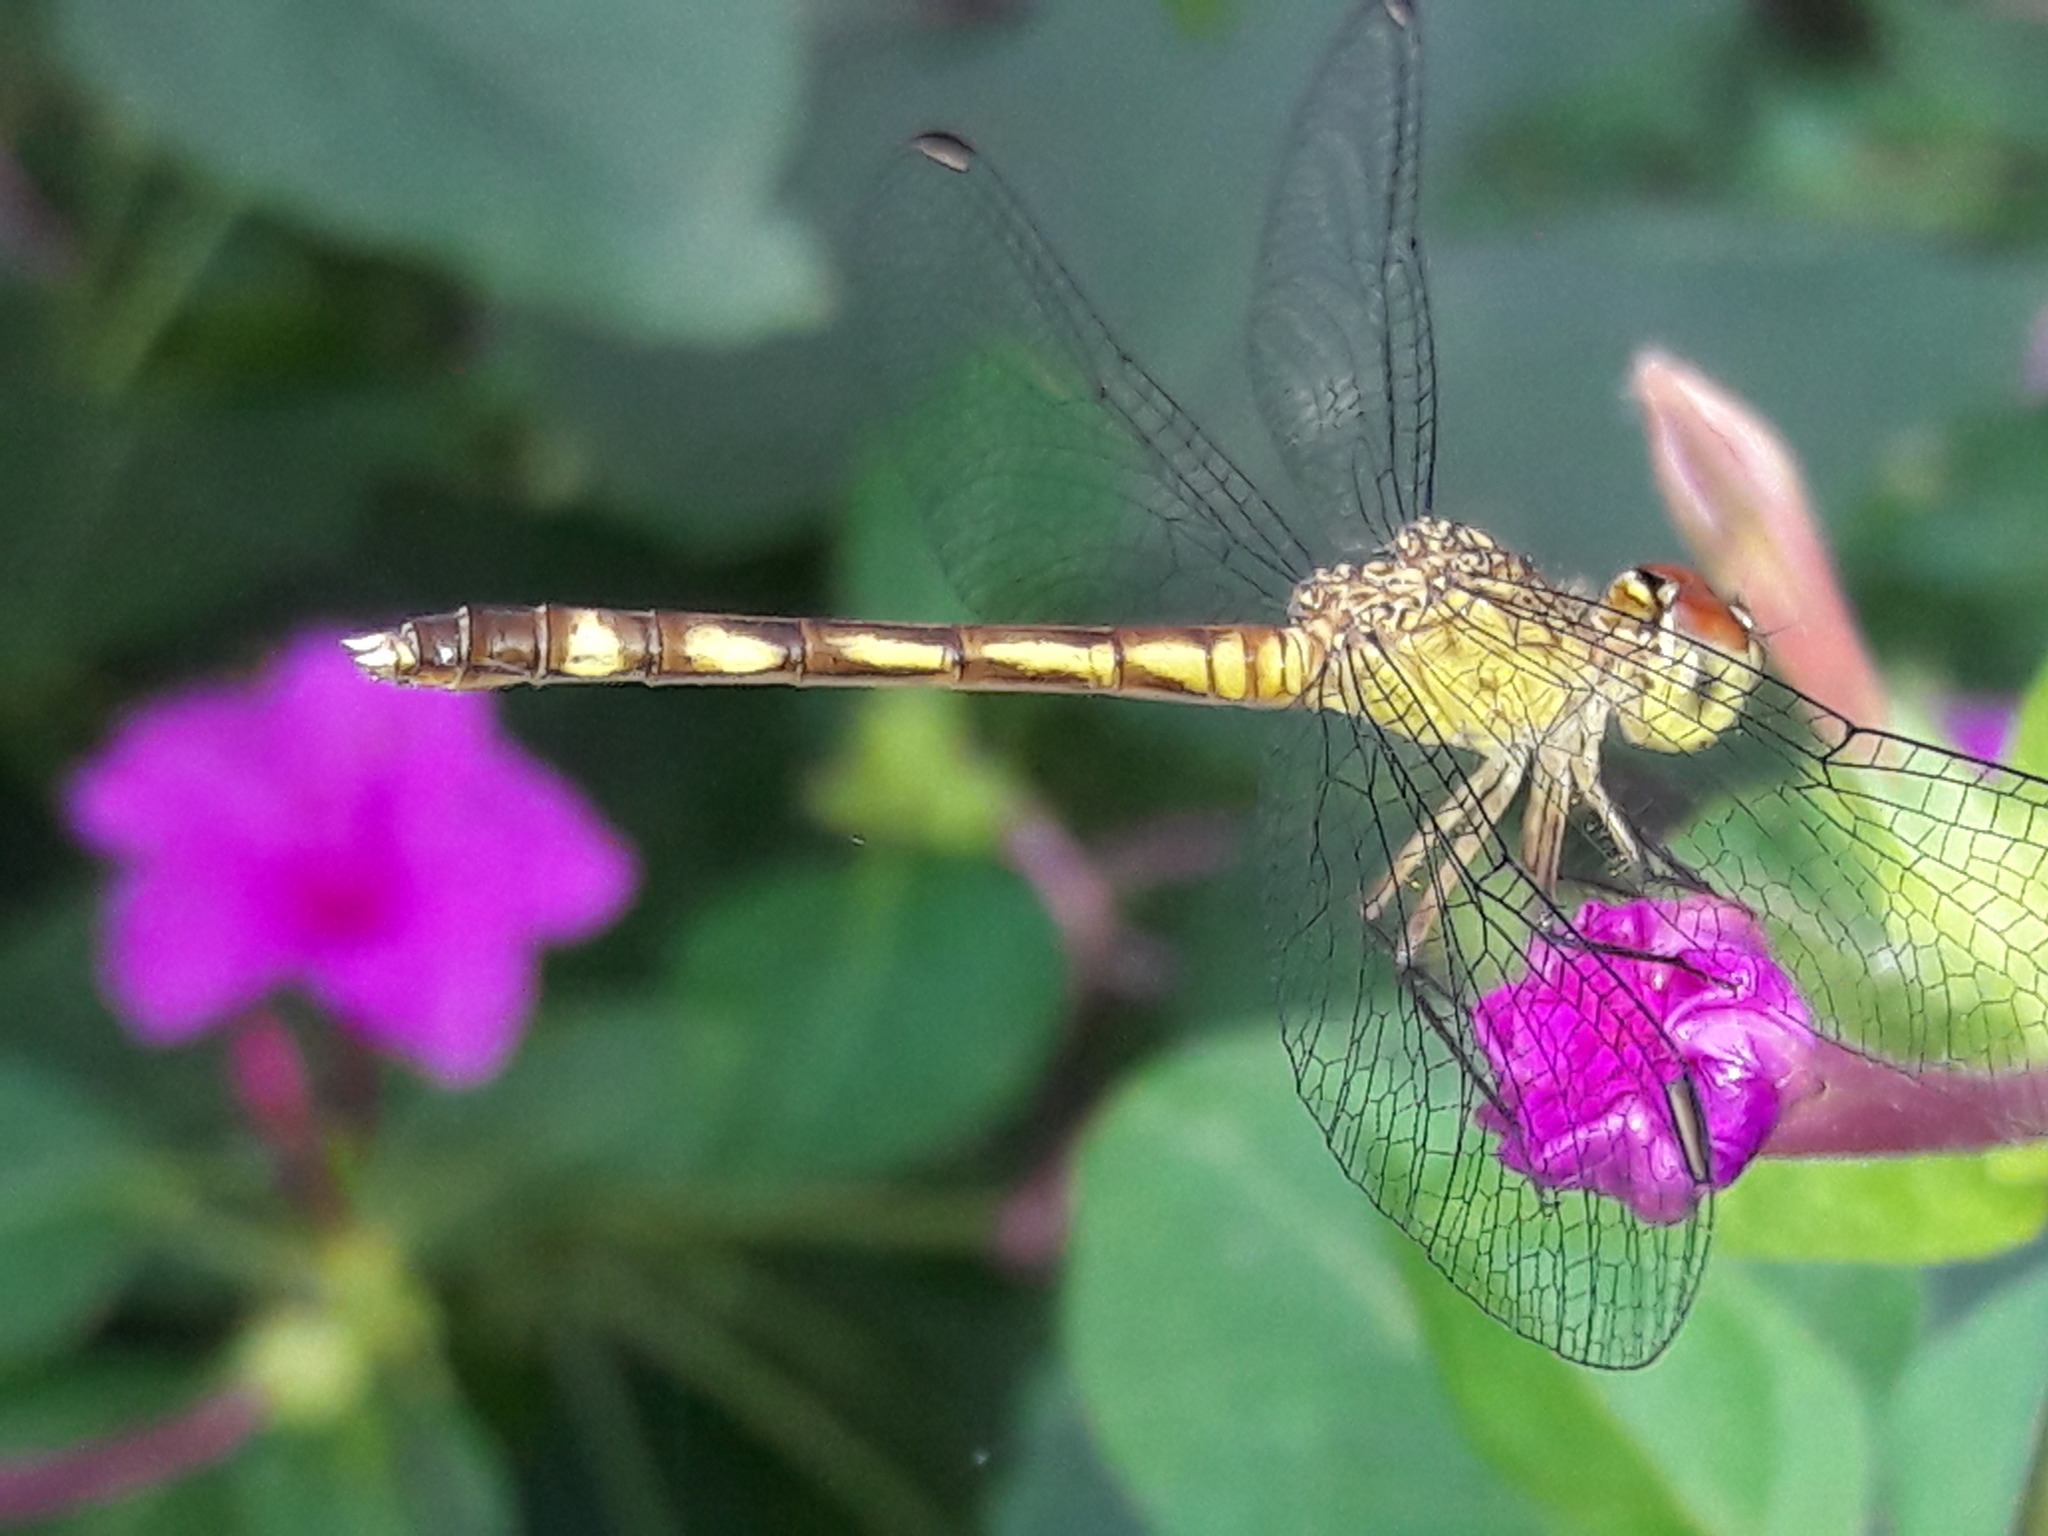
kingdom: Animalia
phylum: Arthropoda
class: Insecta
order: Odonata
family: Libellulidae
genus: Anatya
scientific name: Anatya guttata
